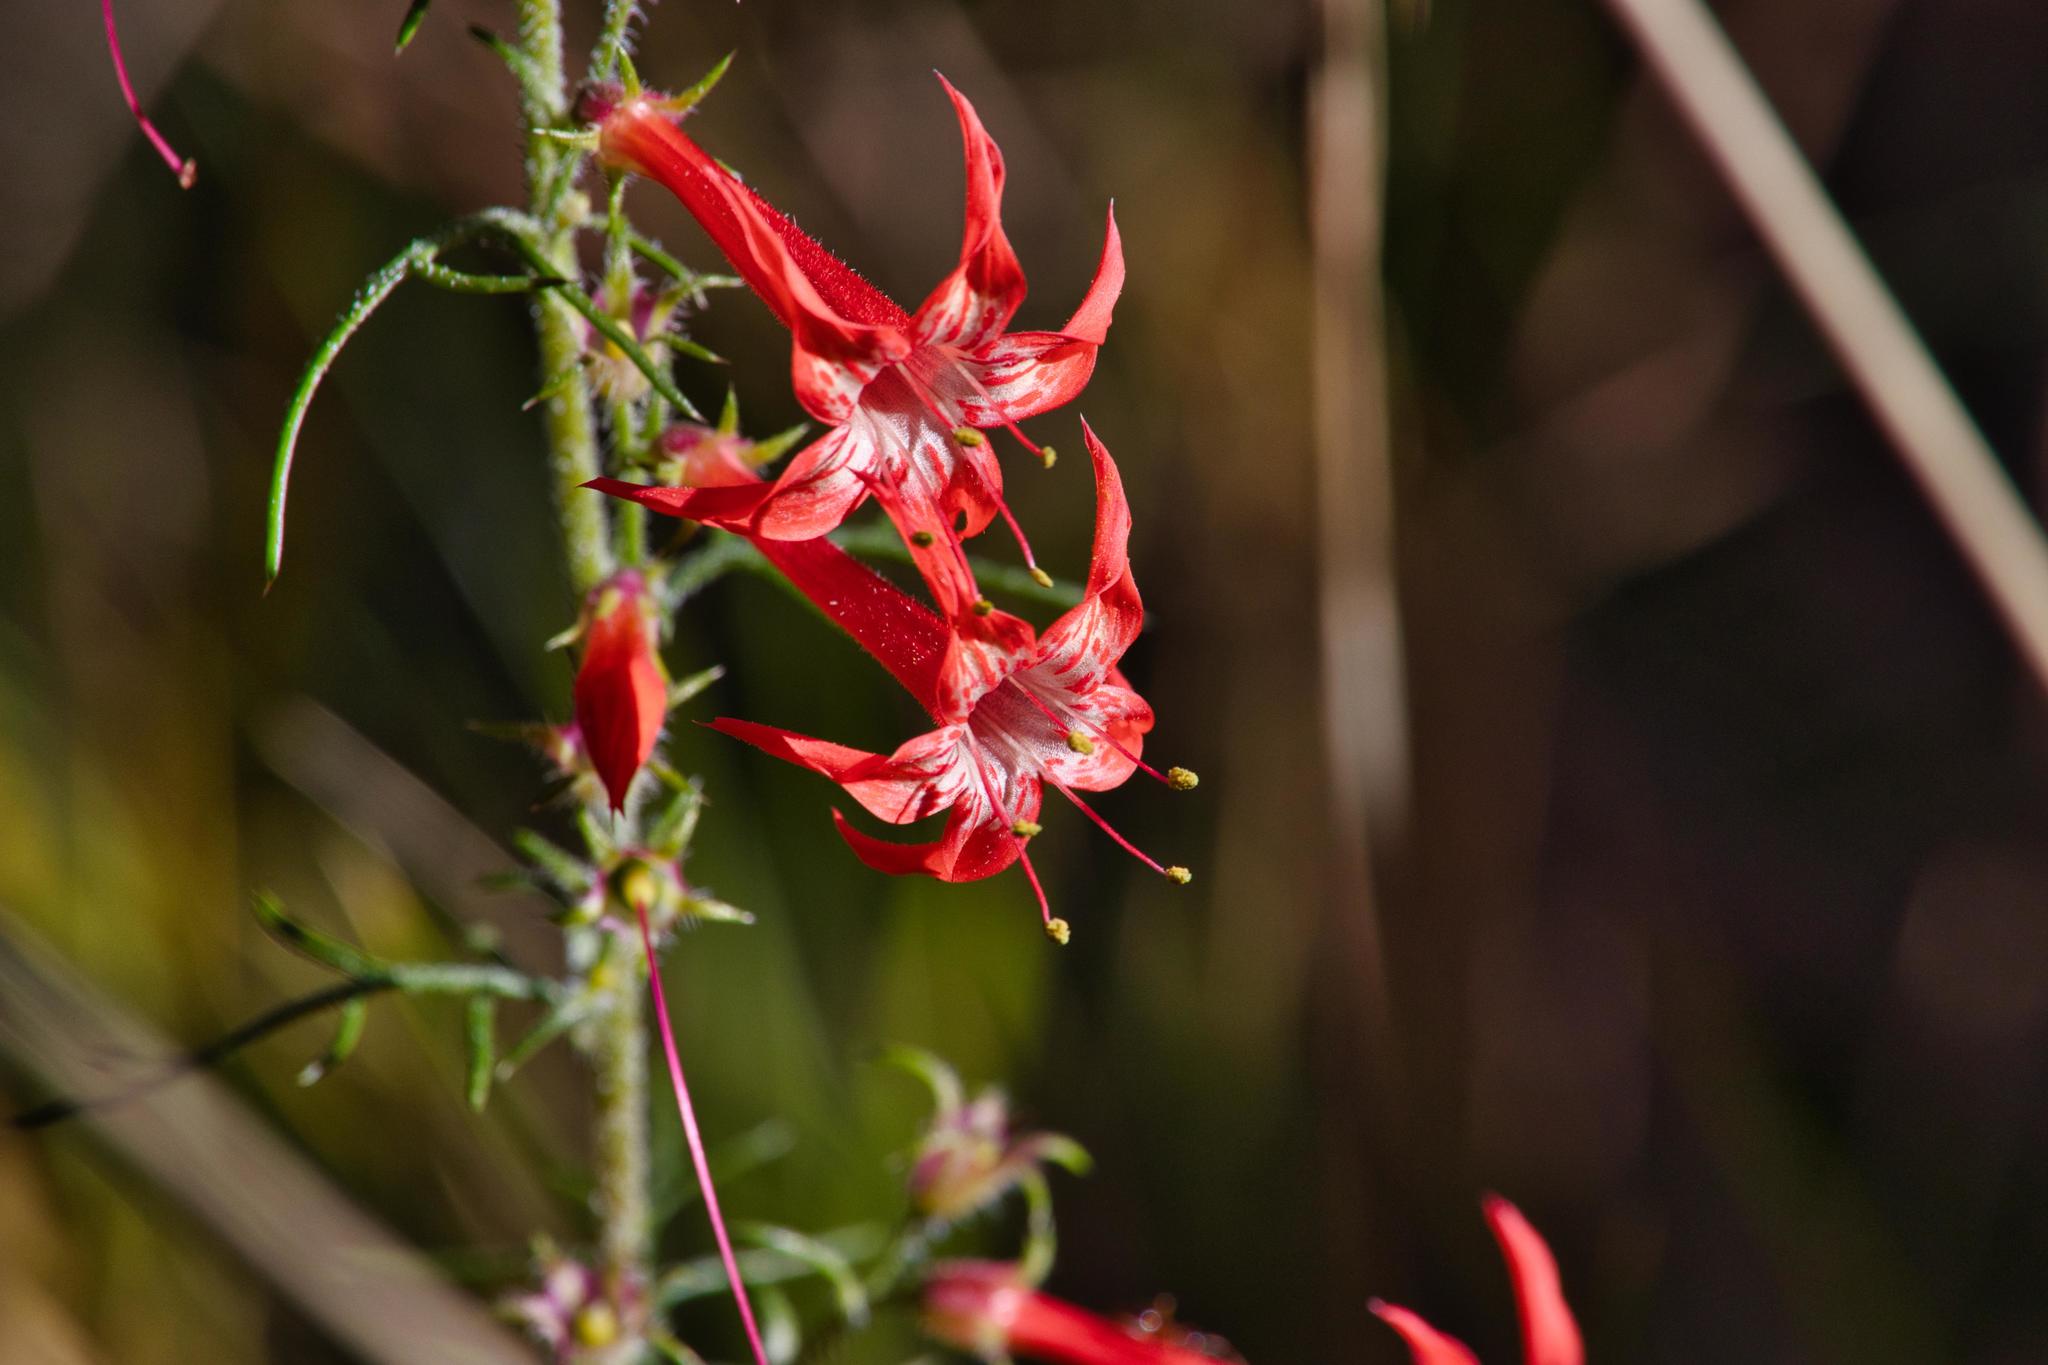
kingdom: Plantae
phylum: Tracheophyta
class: Magnoliopsida
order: Ericales
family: Polemoniaceae
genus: Ipomopsis
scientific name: Ipomopsis aggregata
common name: Scarlet gilia
